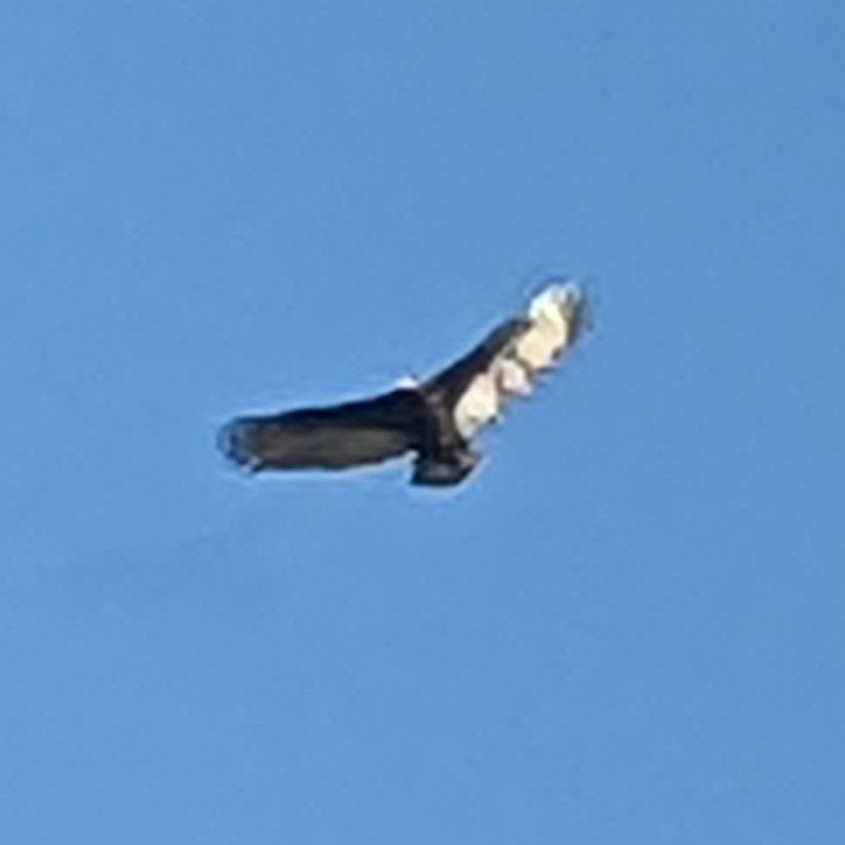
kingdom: Animalia
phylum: Chordata
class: Aves
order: Accipitriformes
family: Cathartidae
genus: Cathartes
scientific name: Cathartes aura
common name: Turkey vulture
